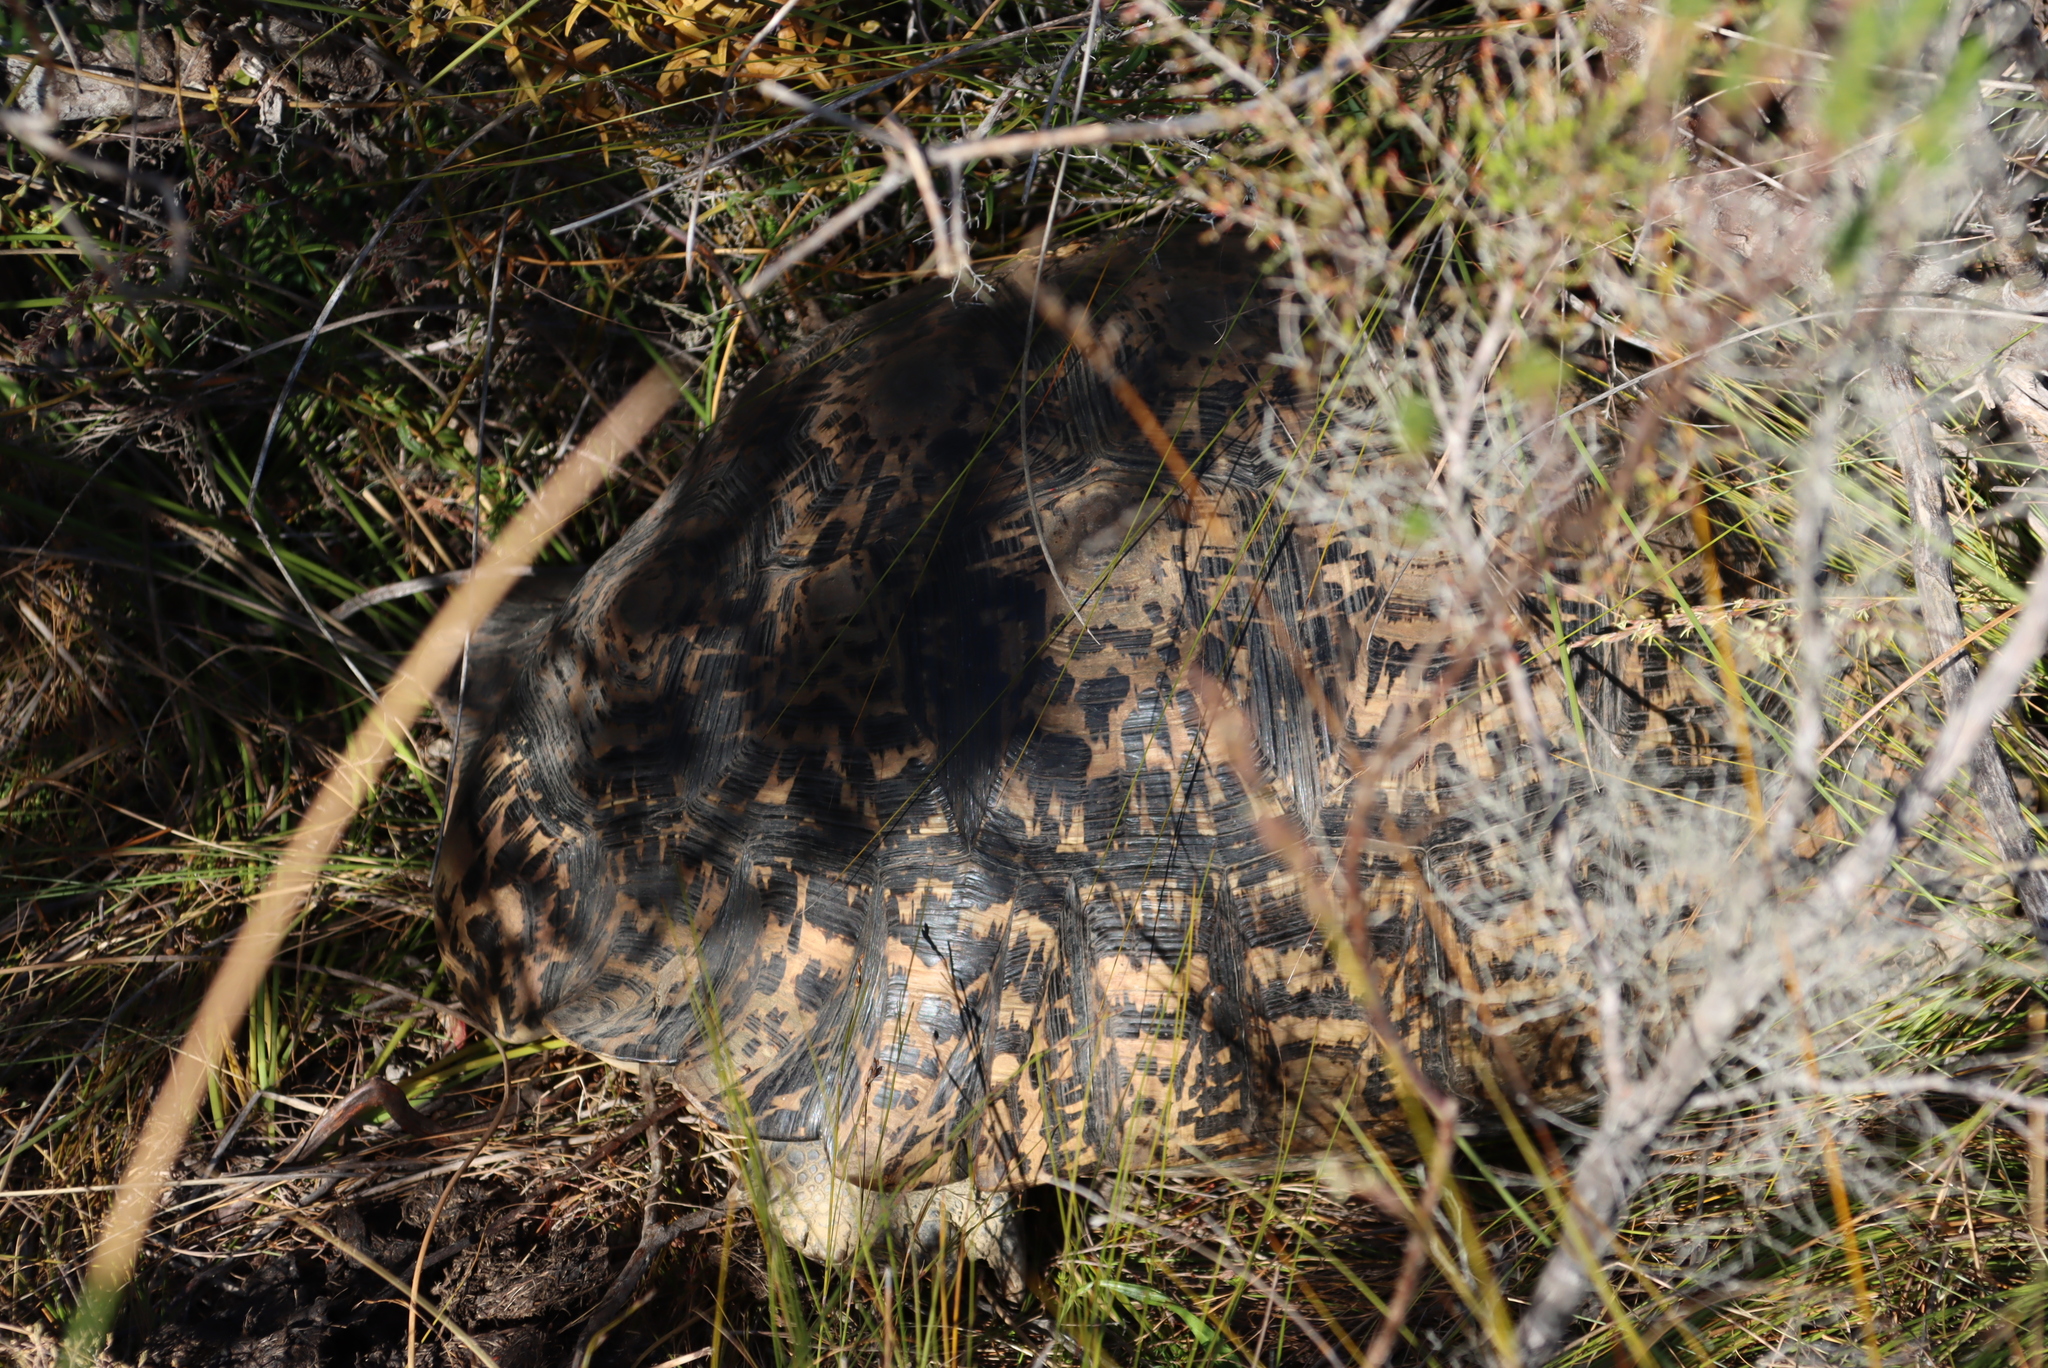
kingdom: Animalia
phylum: Chordata
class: Testudines
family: Testudinidae
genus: Stigmochelys
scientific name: Stigmochelys pardalis
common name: Leopard tortoise
